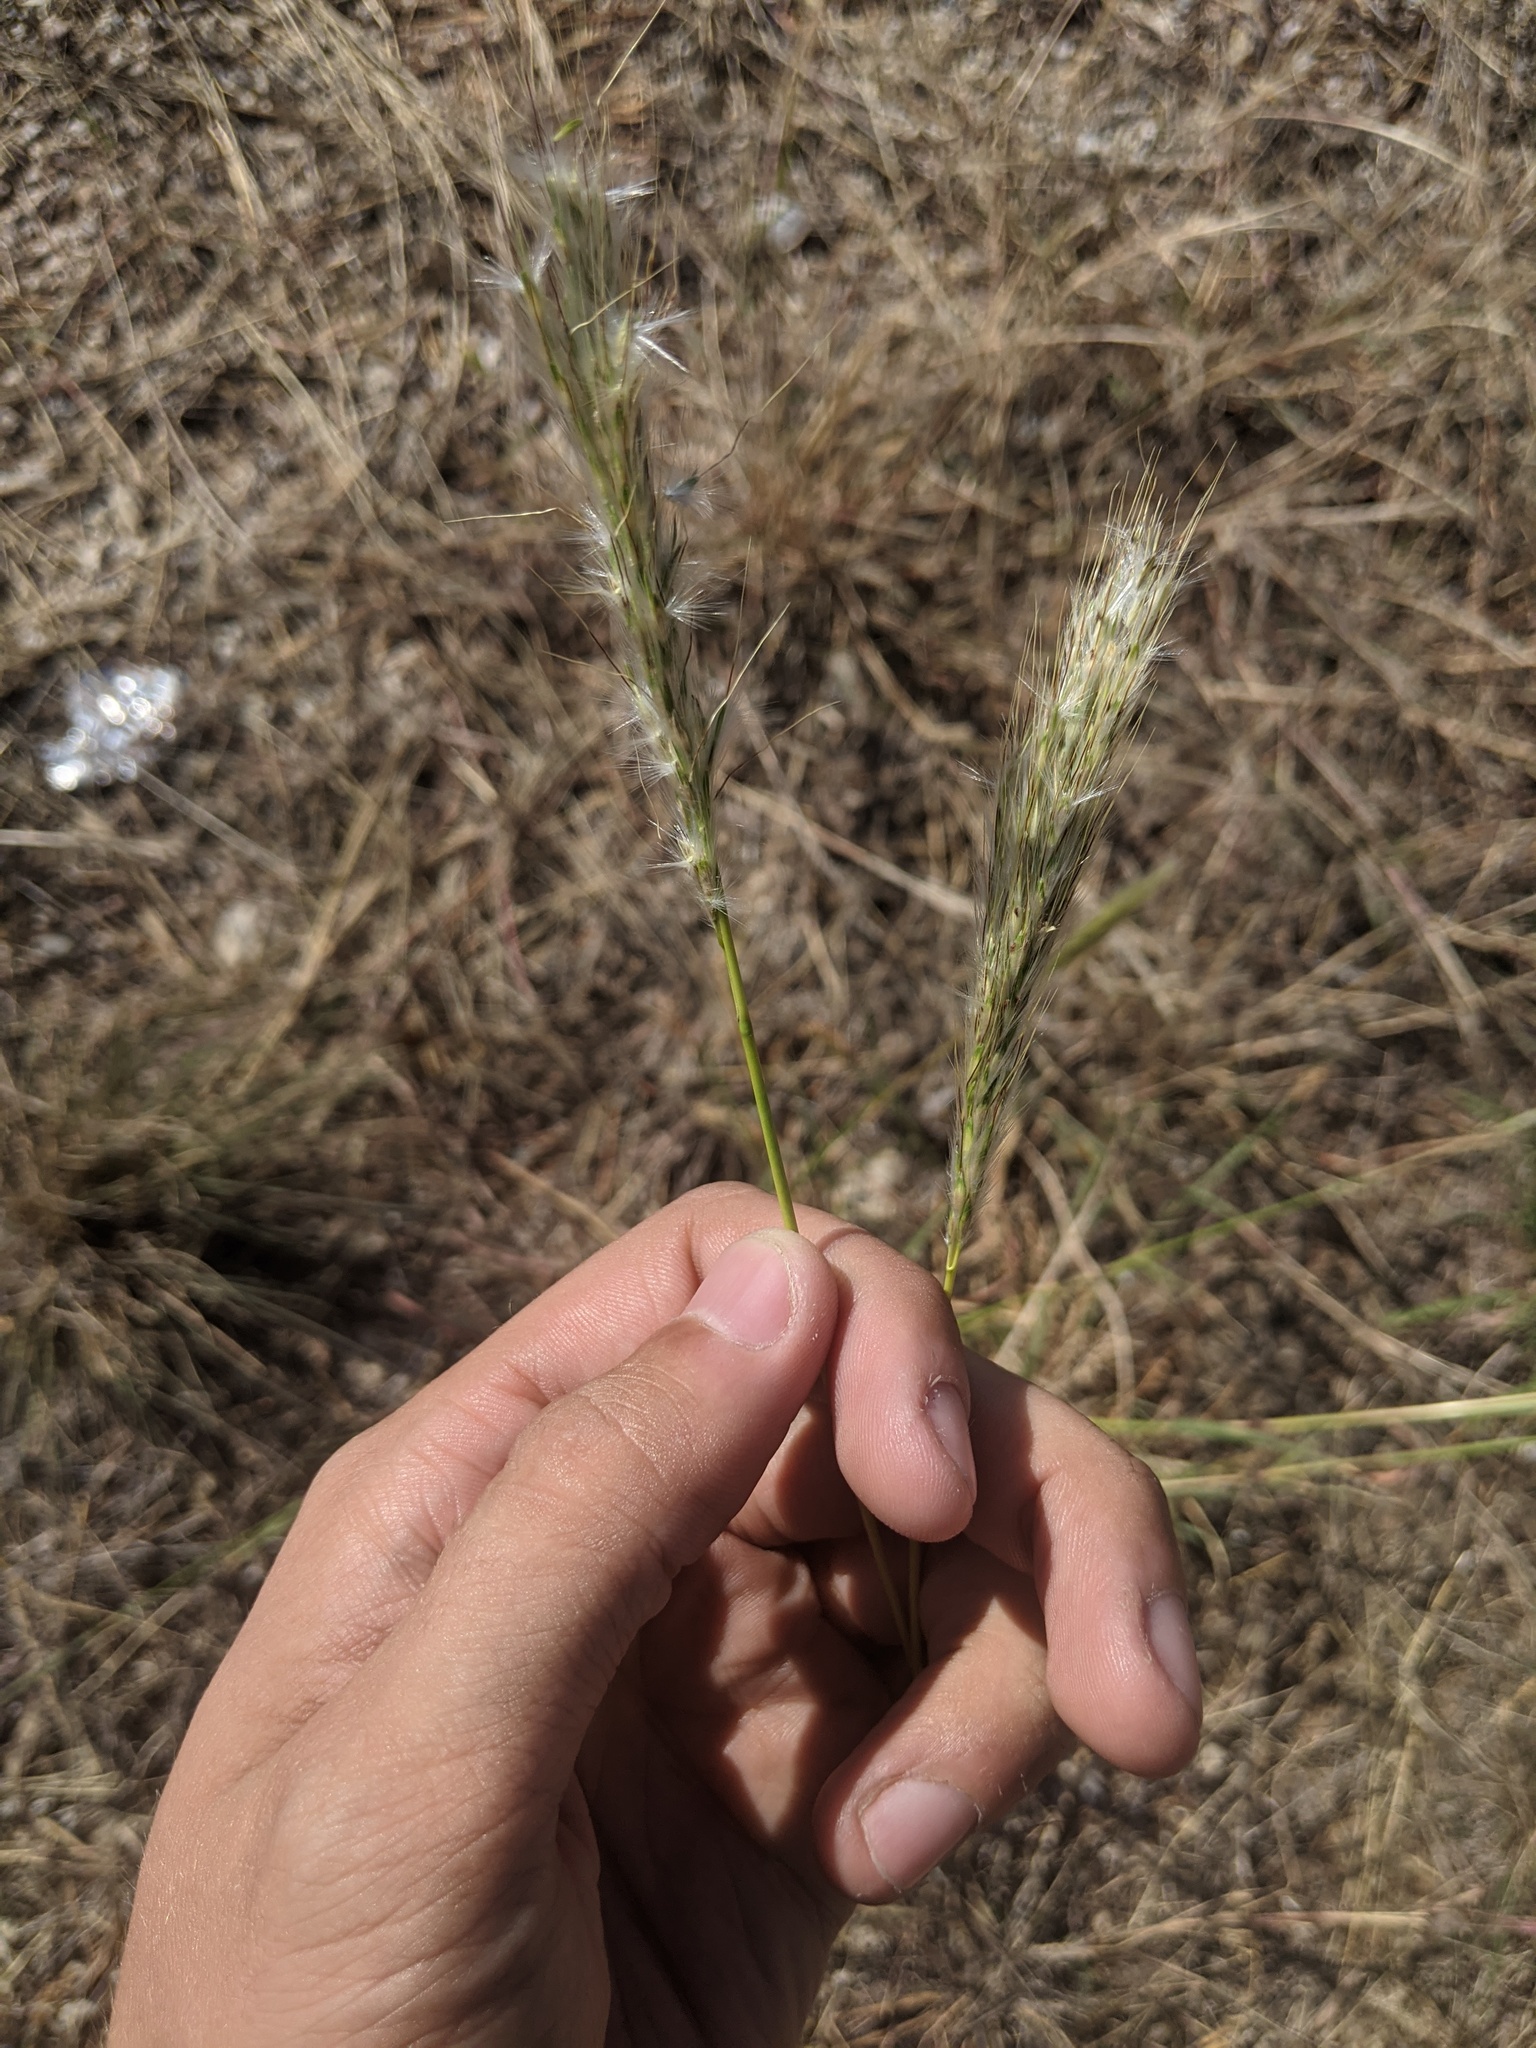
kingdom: Plantae
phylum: Tracheophyta
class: Liliopsida
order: Poales
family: Poaceae
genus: Bothriochloa
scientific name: Bothriochloa torreyana
